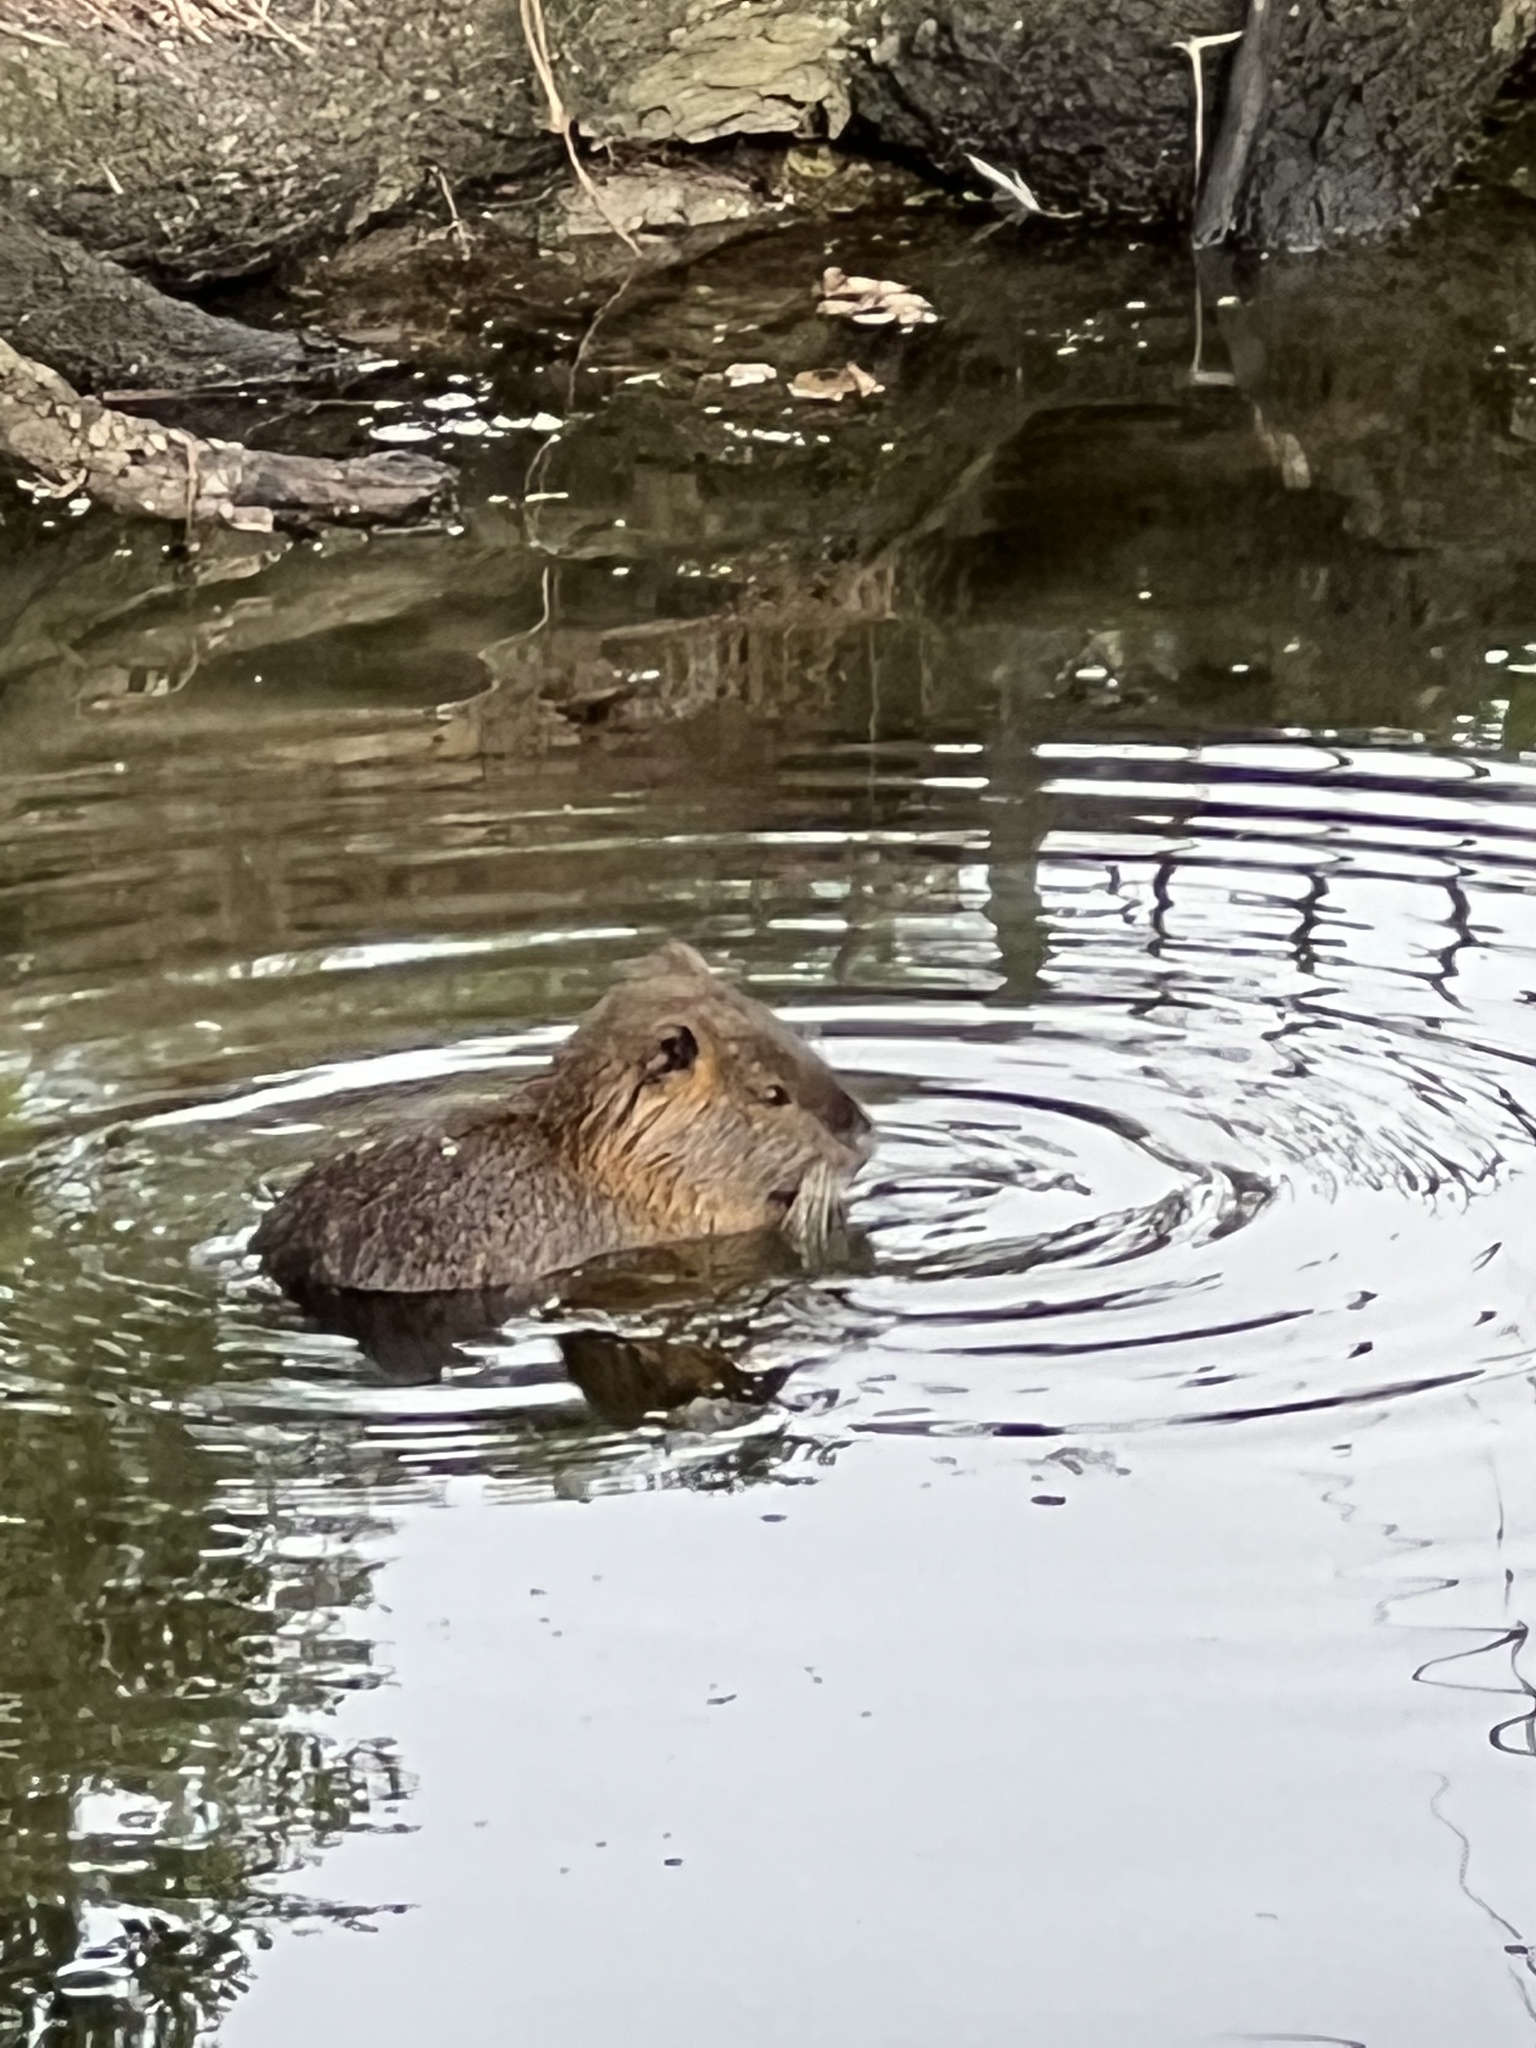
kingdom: Animalia
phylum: Chordata
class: Mammalia
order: Rodentia
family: Myocastoridae
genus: Myocastor
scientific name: Myocastor coypus
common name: Coypu
